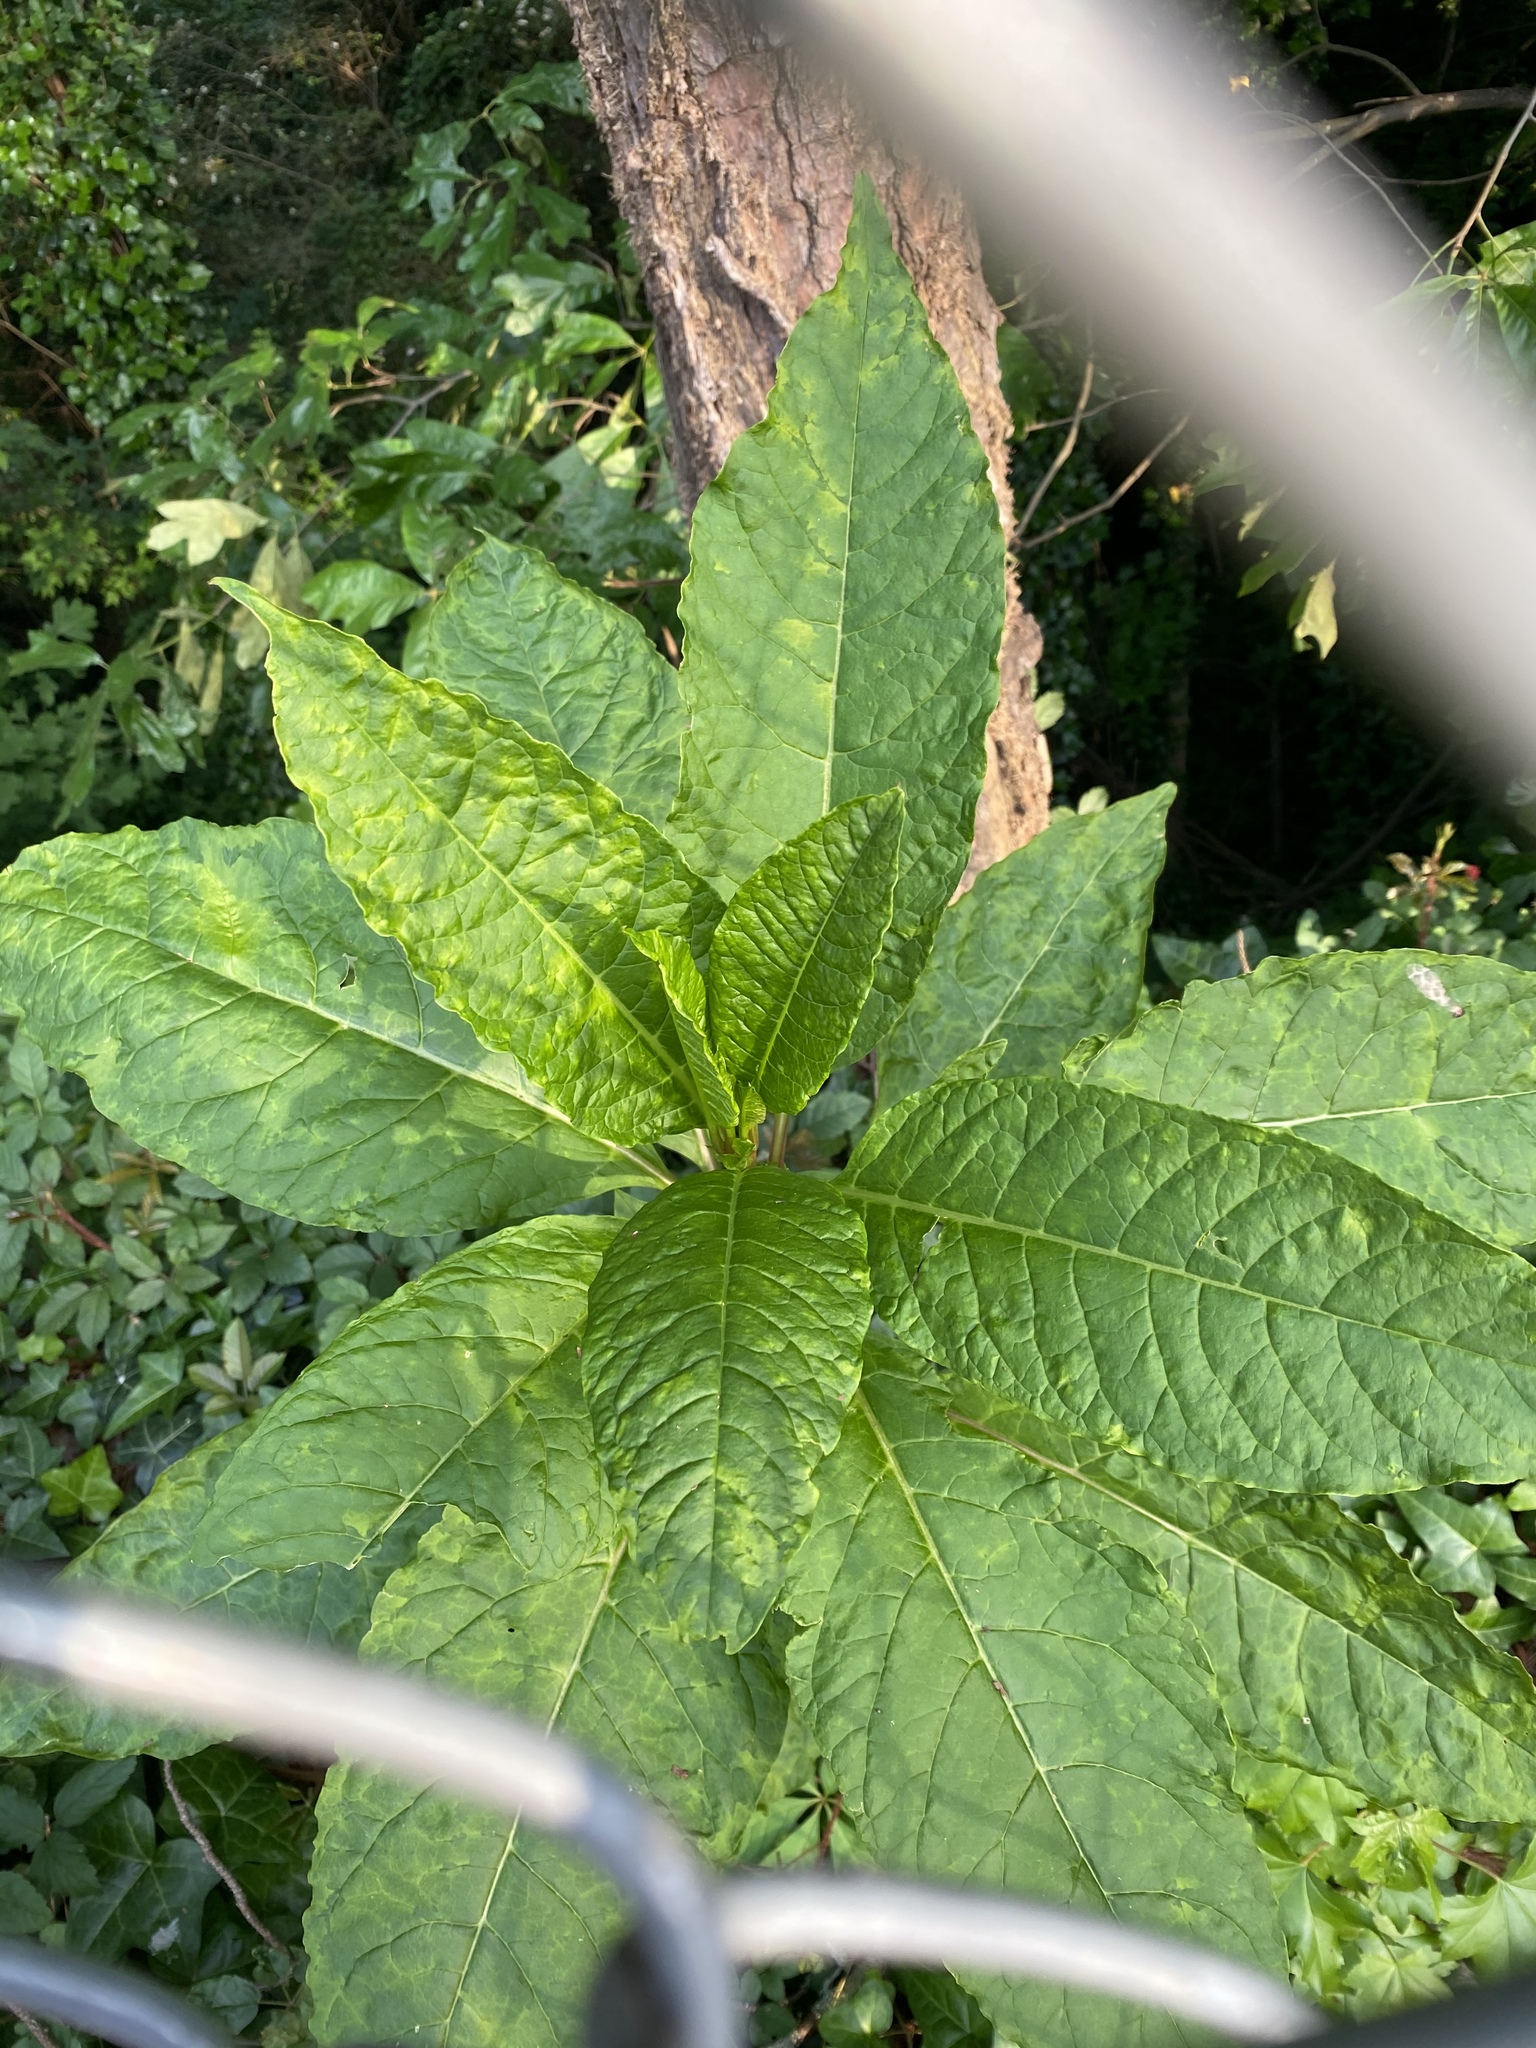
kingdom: Viruses
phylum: Pisuviricota
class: Stelpaviricetes
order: Patatavirales
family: Potyviridae
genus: Potyvirus
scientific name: Potyvirus Pokeweed mosaic virus
